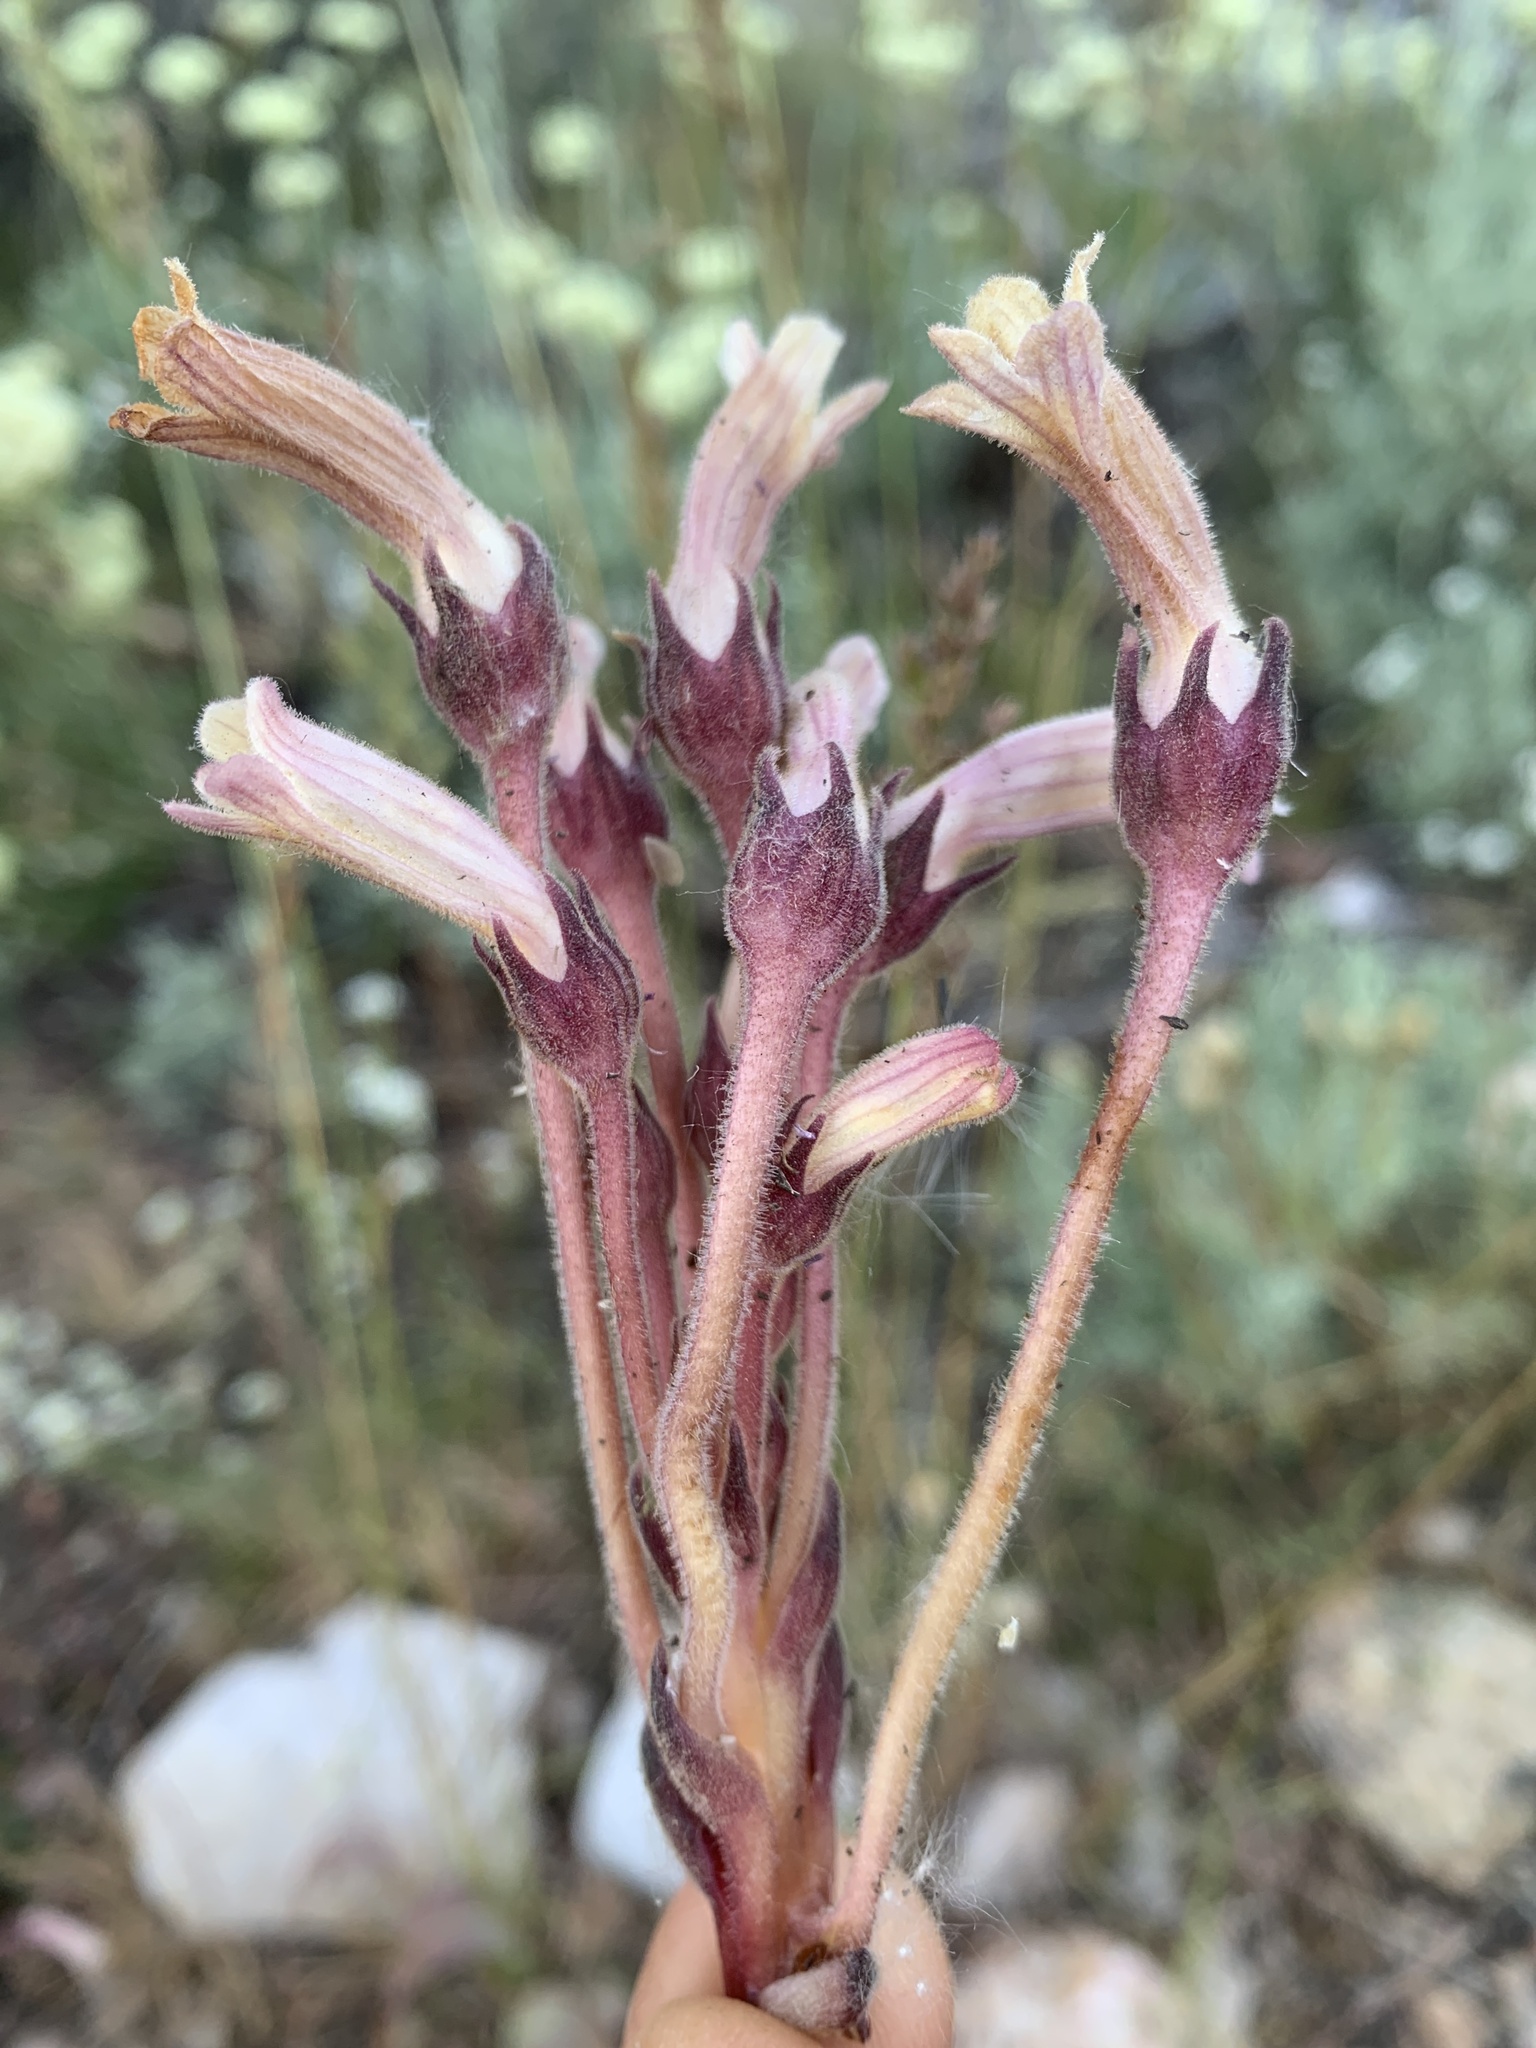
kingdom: Plantae
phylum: Tracheophyta
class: Magnoliopsida
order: Lamiales
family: Orobanchaceae
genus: Aphyllon
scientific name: Aphyllon fasciculatum
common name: Clustered broomrape
